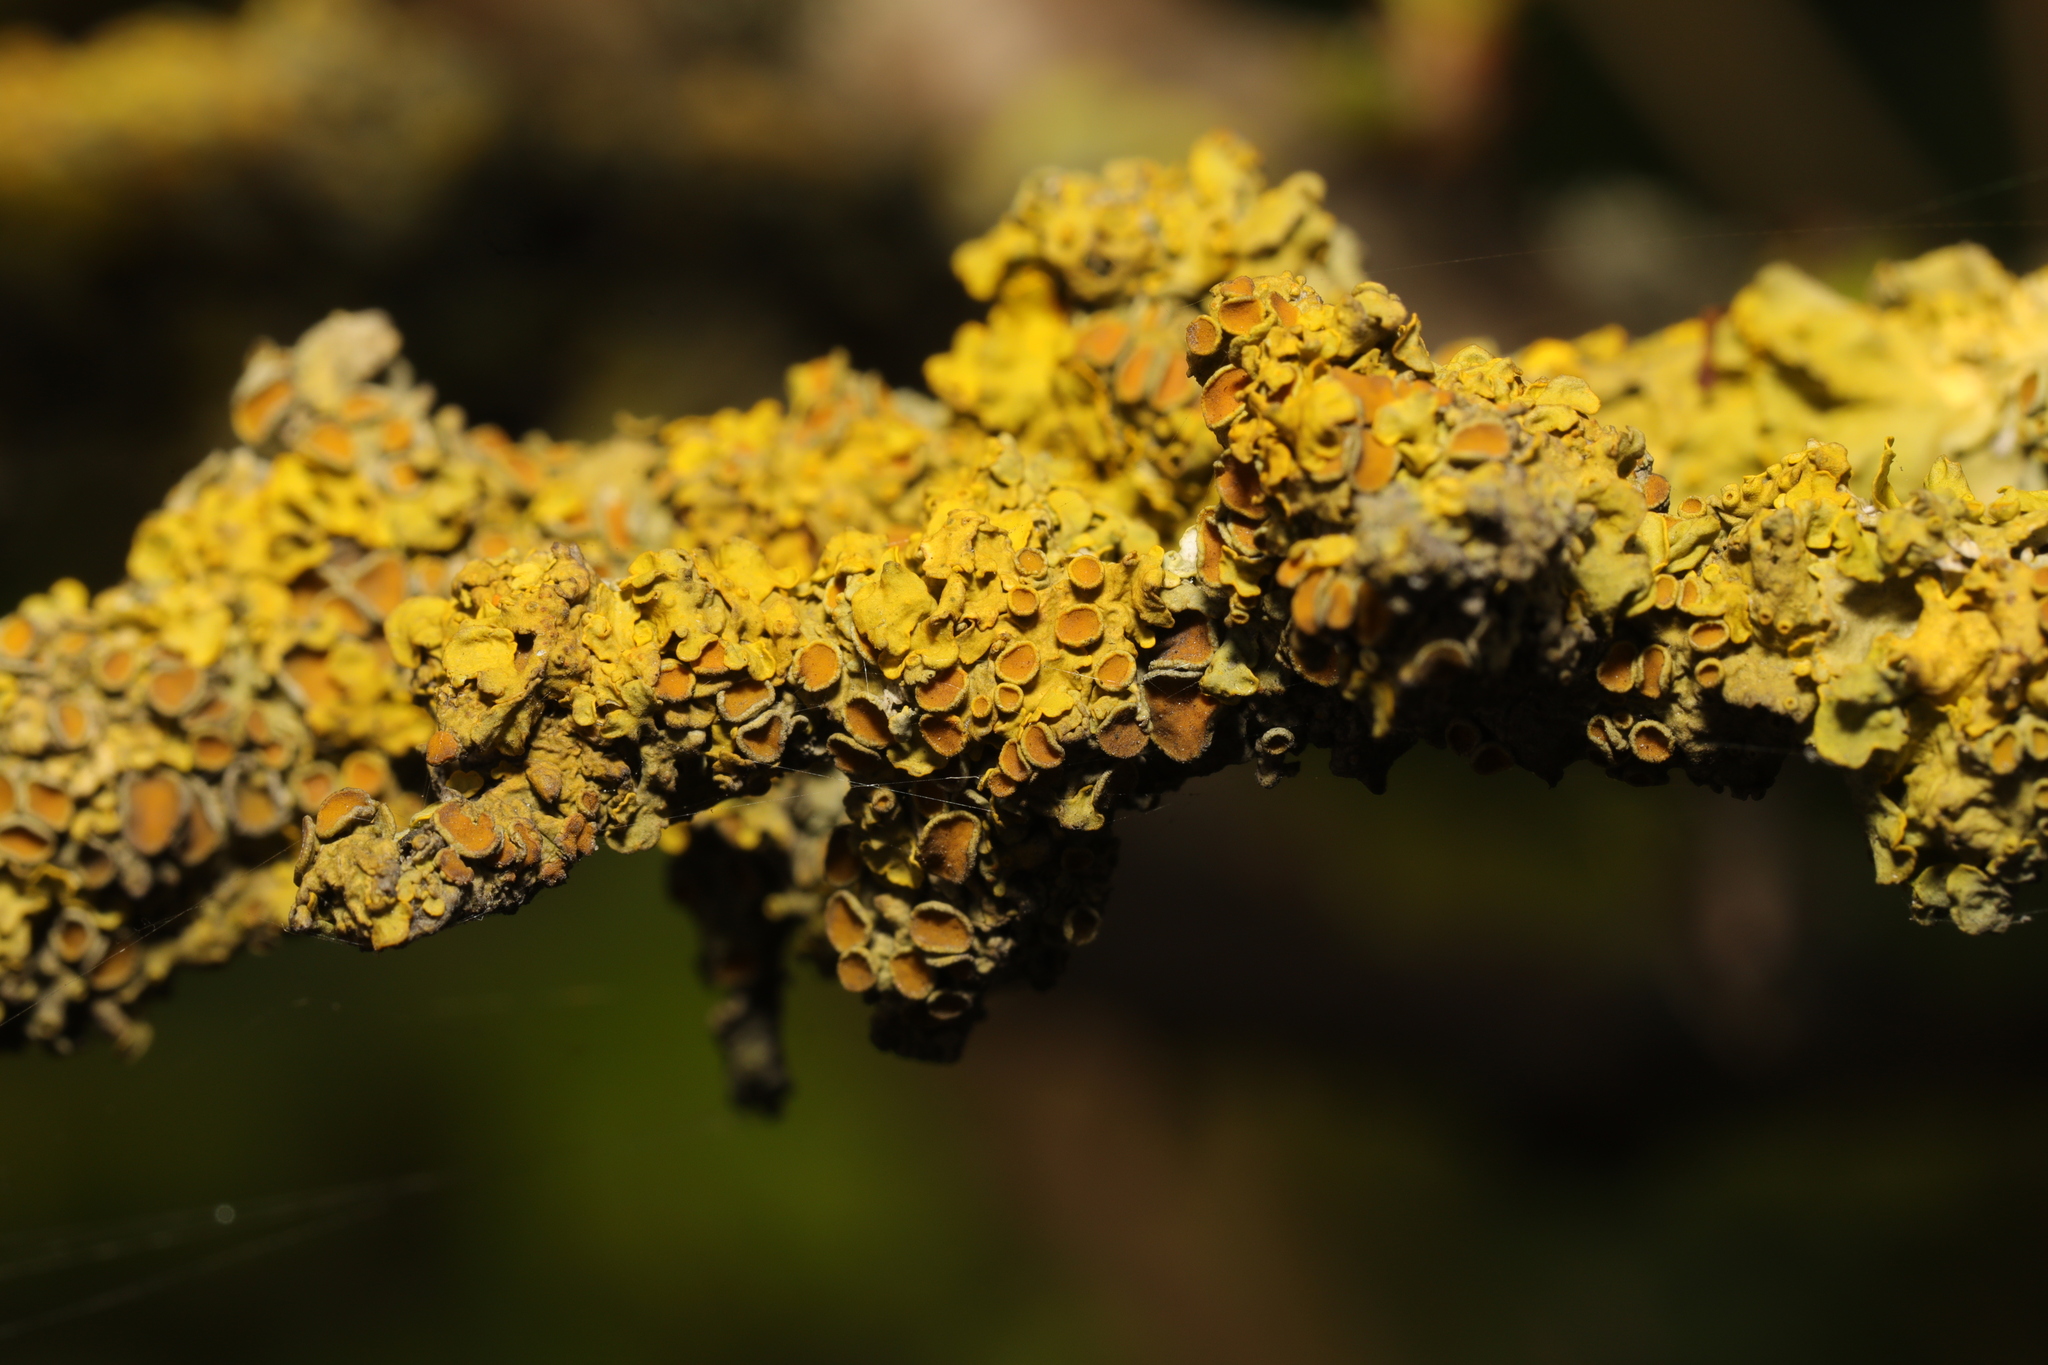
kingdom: Fungi
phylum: Ascomycota
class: Lecanoromycetes
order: Teloschistales
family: Teloschistaceae
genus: Xanthoria
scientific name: Xanthoria parietina
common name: Common orange lichen
